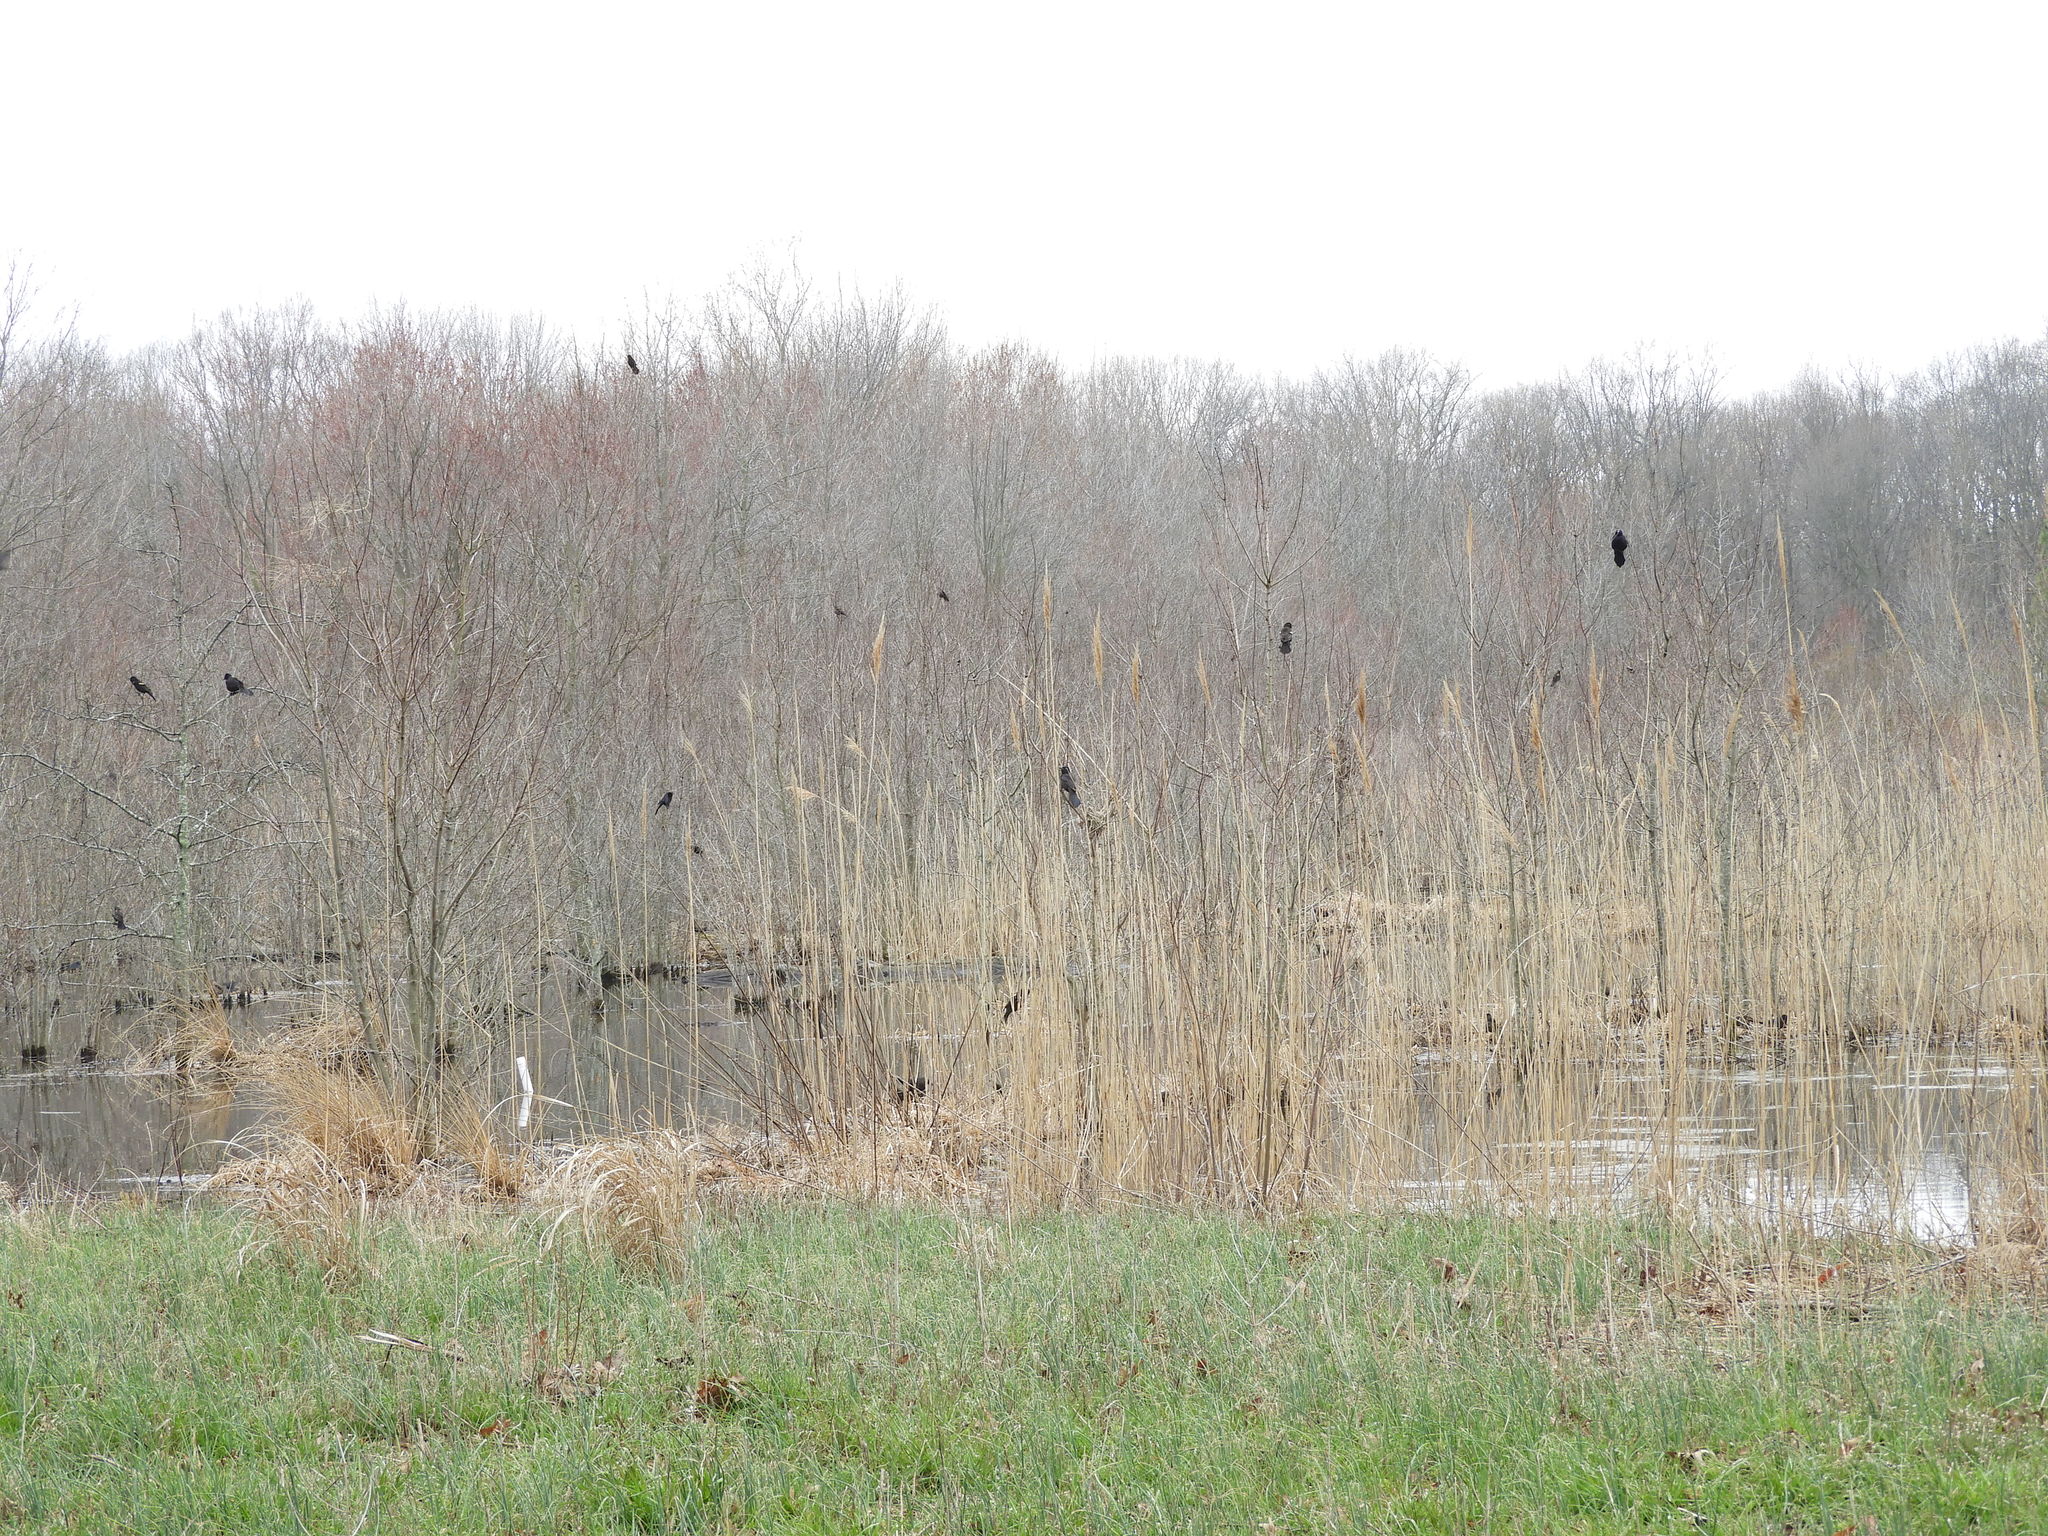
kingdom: Animalia
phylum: Chordata
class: Aves
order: Passeriformes
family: Icteridae
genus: Quiscalus
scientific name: Quiscalus quiscula
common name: Common grackle
